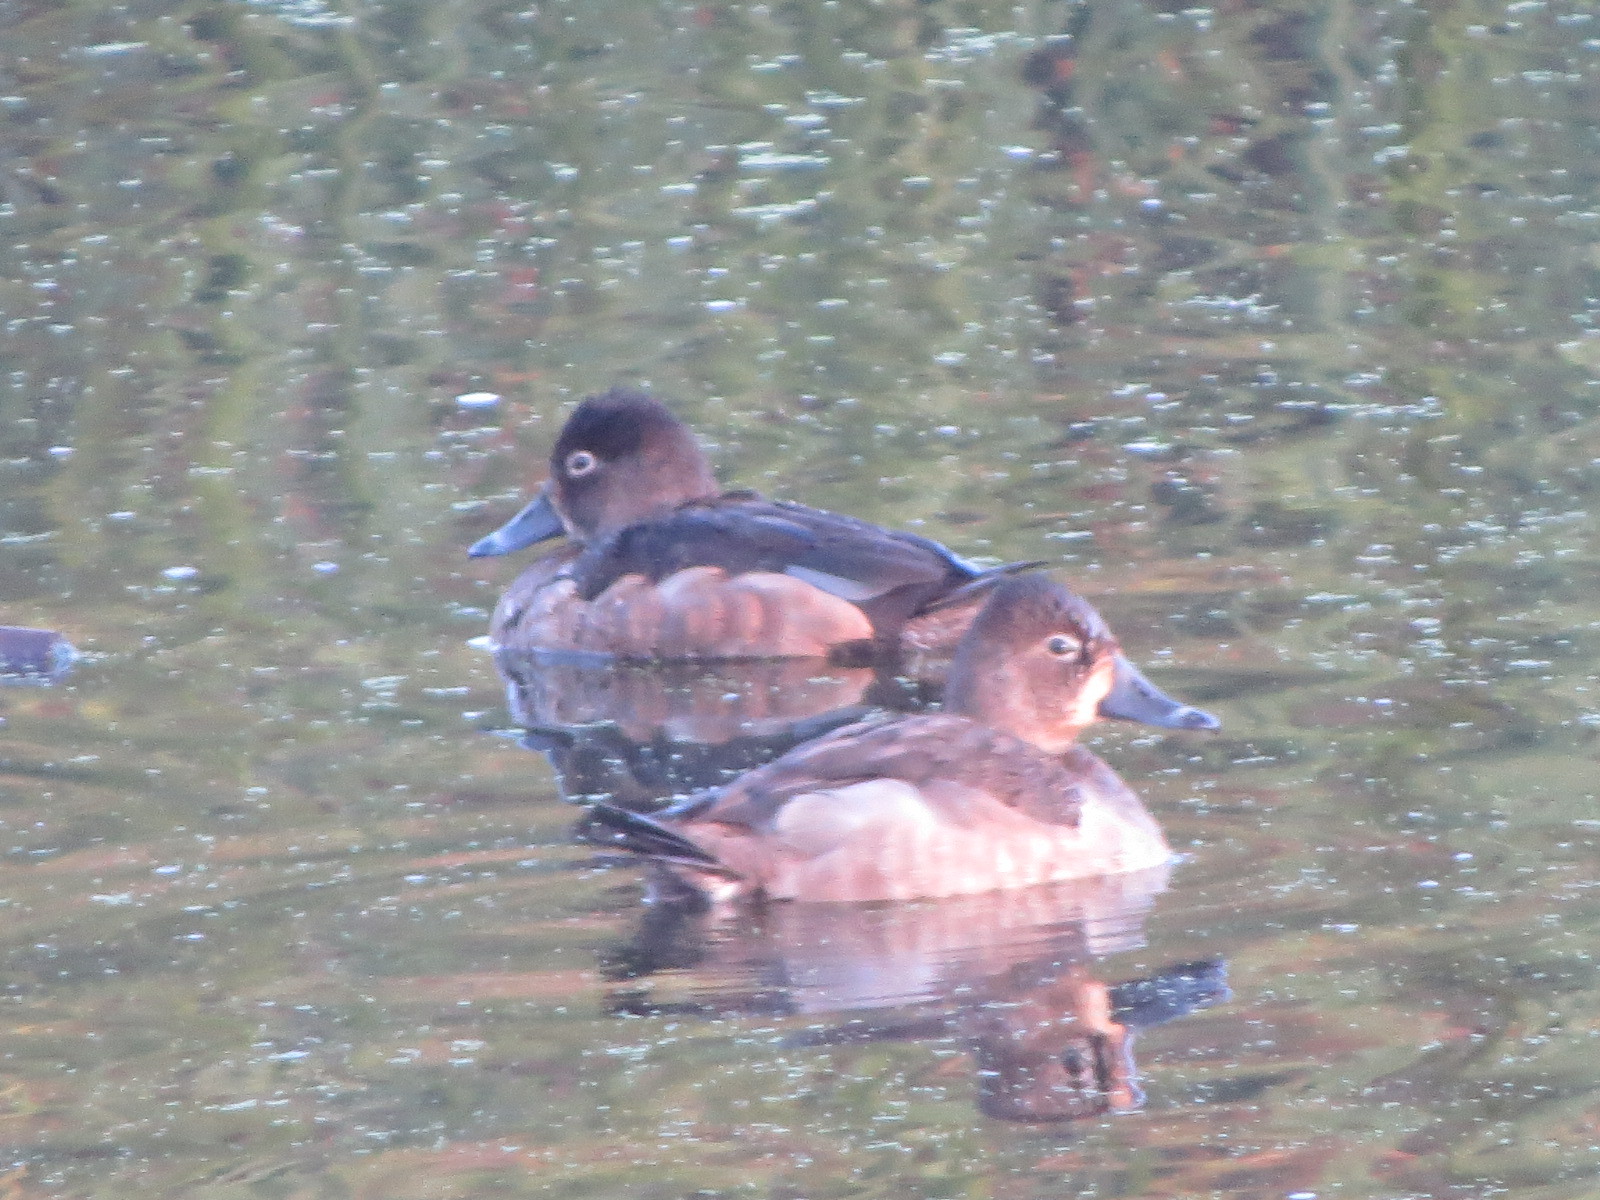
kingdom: Animalia
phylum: Chordata
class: Aves
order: Anseriformes
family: Anatidae
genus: Aythya
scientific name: Aythya collaris
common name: Ring-necked duck
